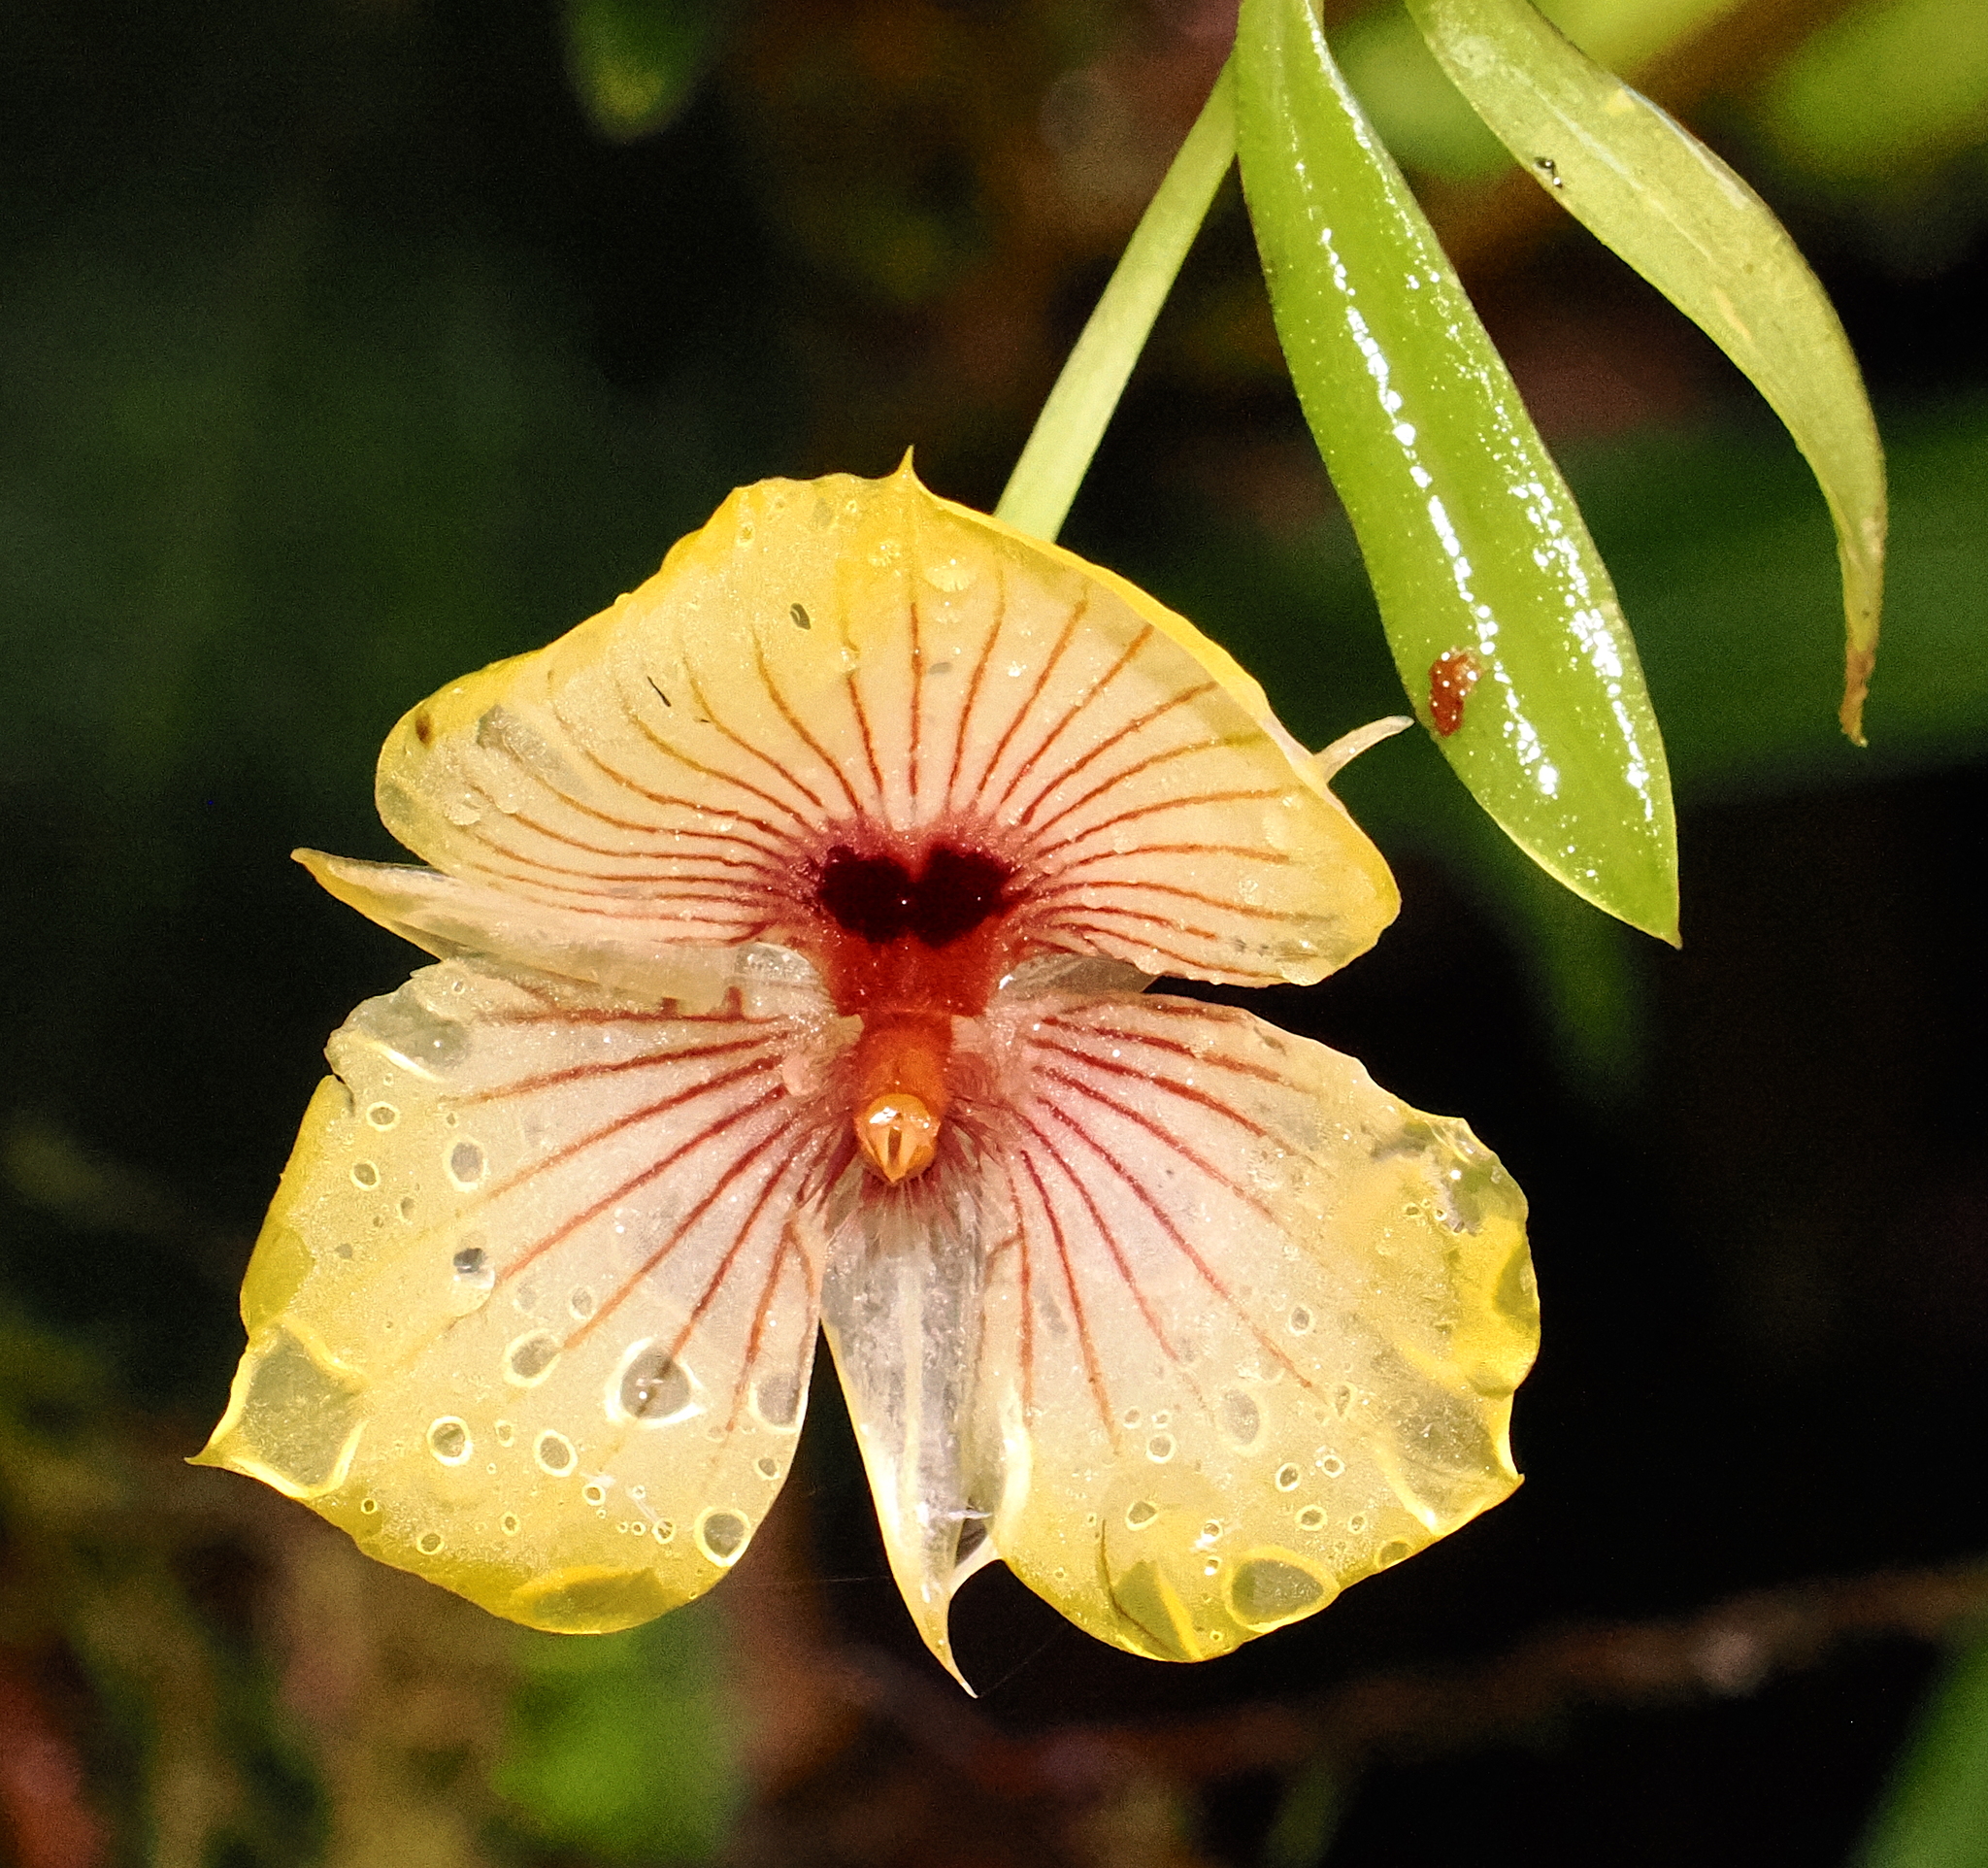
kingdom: Plantae
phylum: Tracheophyta
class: Liliopsida
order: Asparagales
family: Orchidaceae
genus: Telipogon
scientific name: Telipogon lehmannii
